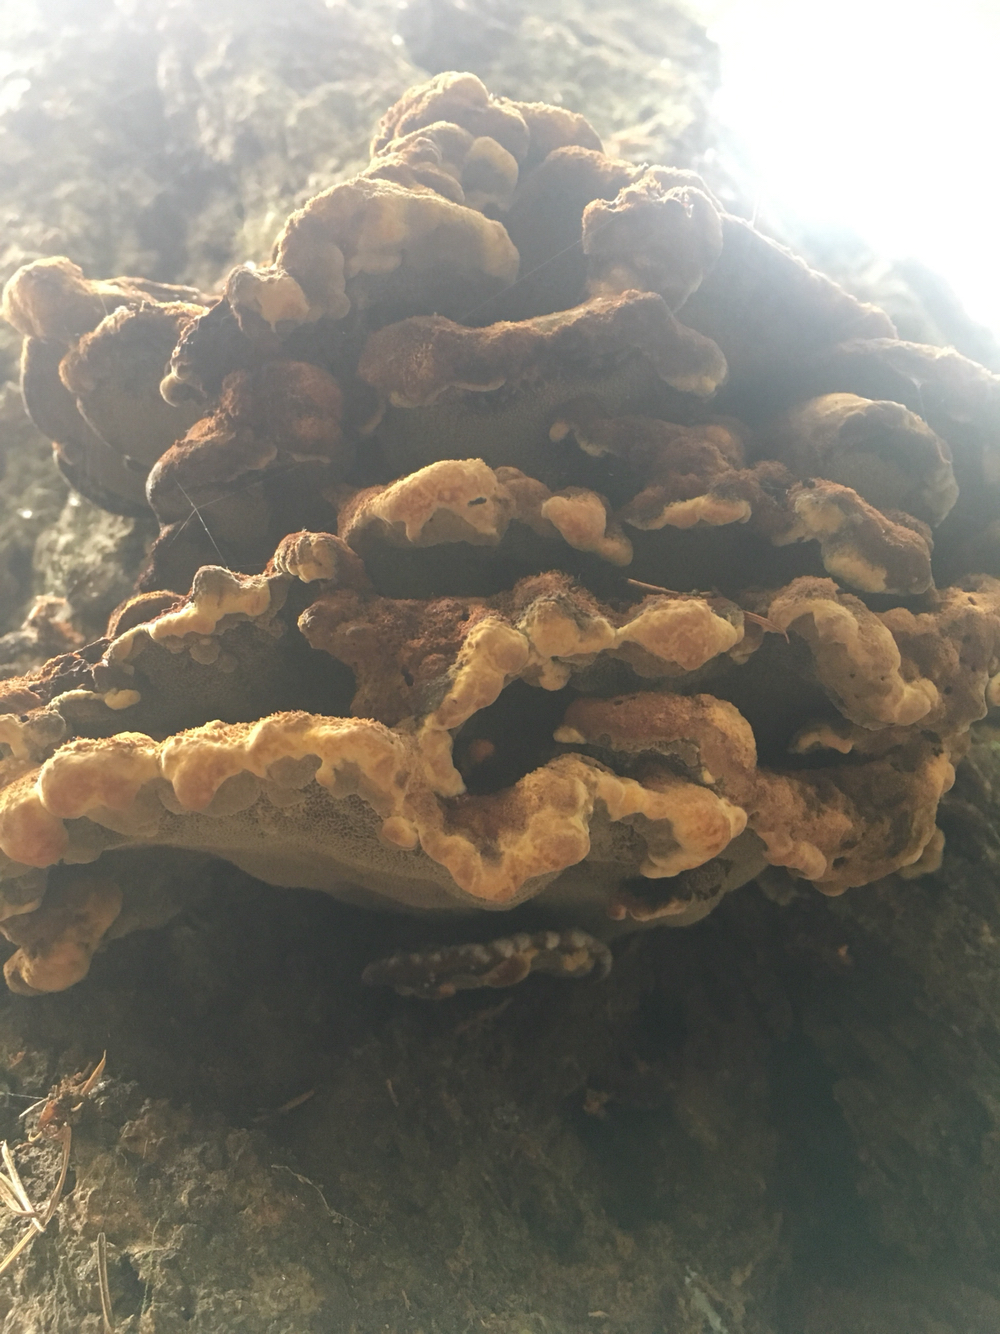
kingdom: Fungi
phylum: Basidiomycota
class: Agaricomycetes
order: Polyporales
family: Laetiporaceae
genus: Phaeolus
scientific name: Phaeolus schweinitzii
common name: Dyer's mazegill
